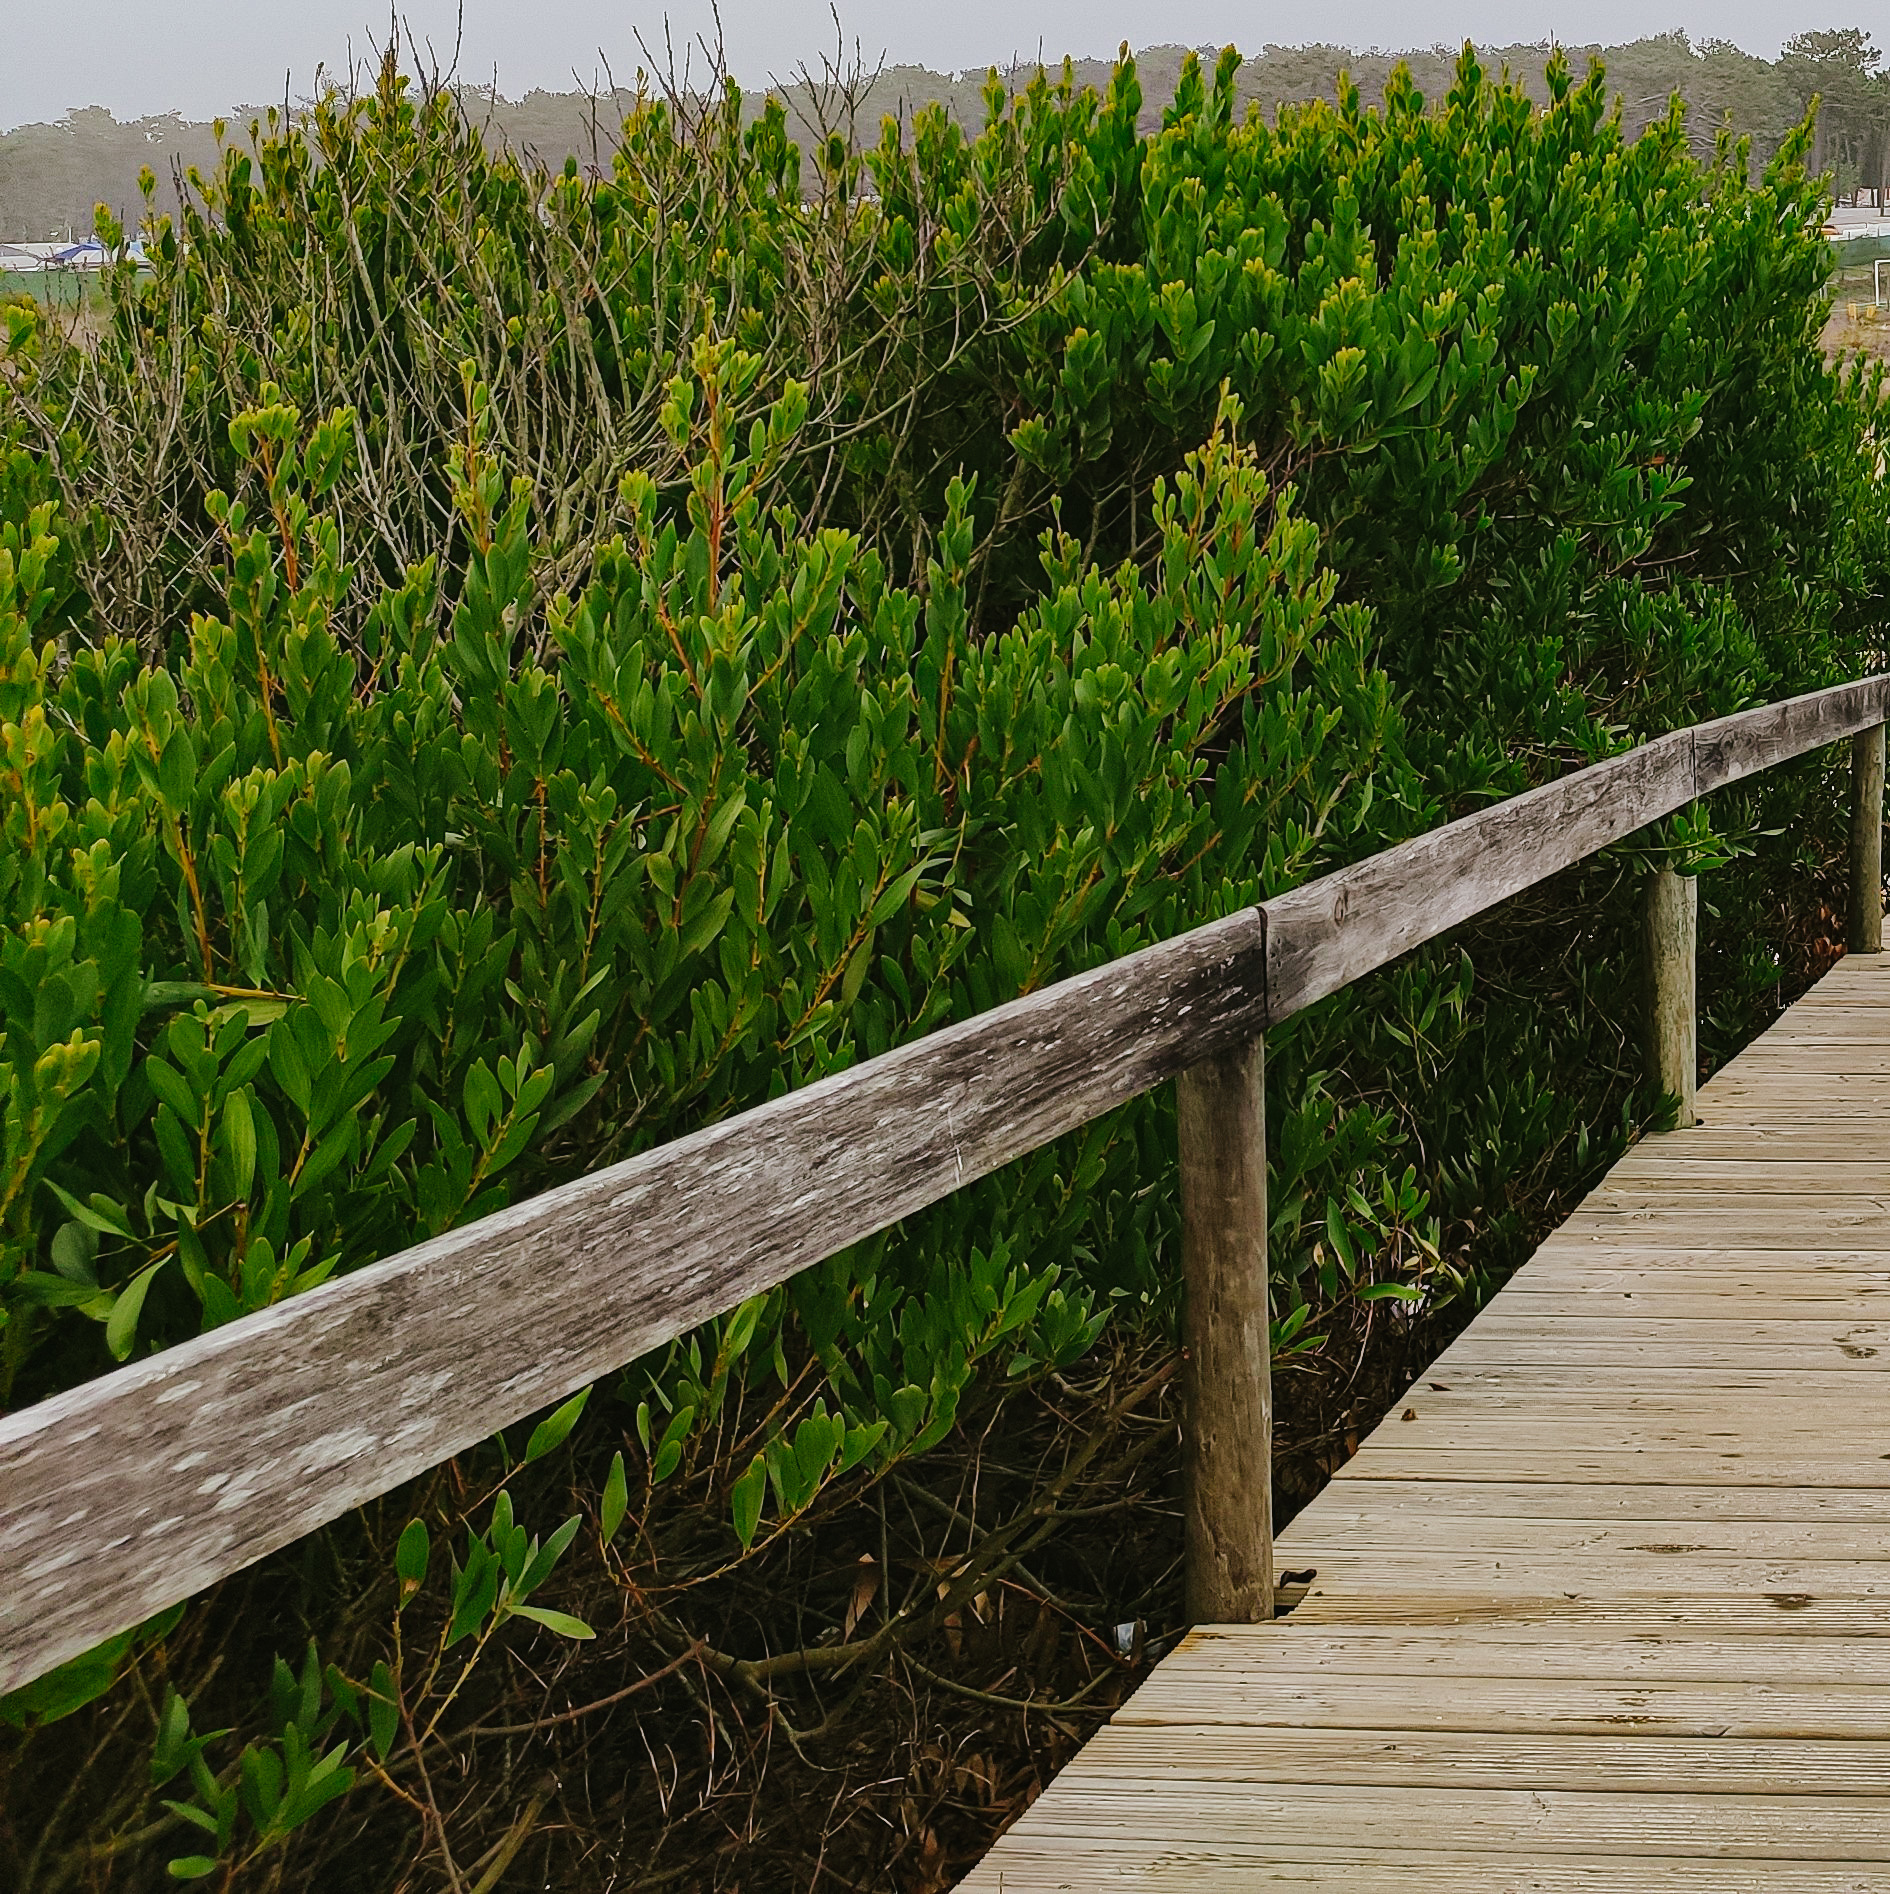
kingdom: Plantae
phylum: Tracheophyta
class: Magnoliopsida
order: Fabales
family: Fabaceae
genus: Acacia
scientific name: Acacia longifolia
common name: Sydney golden wattle
